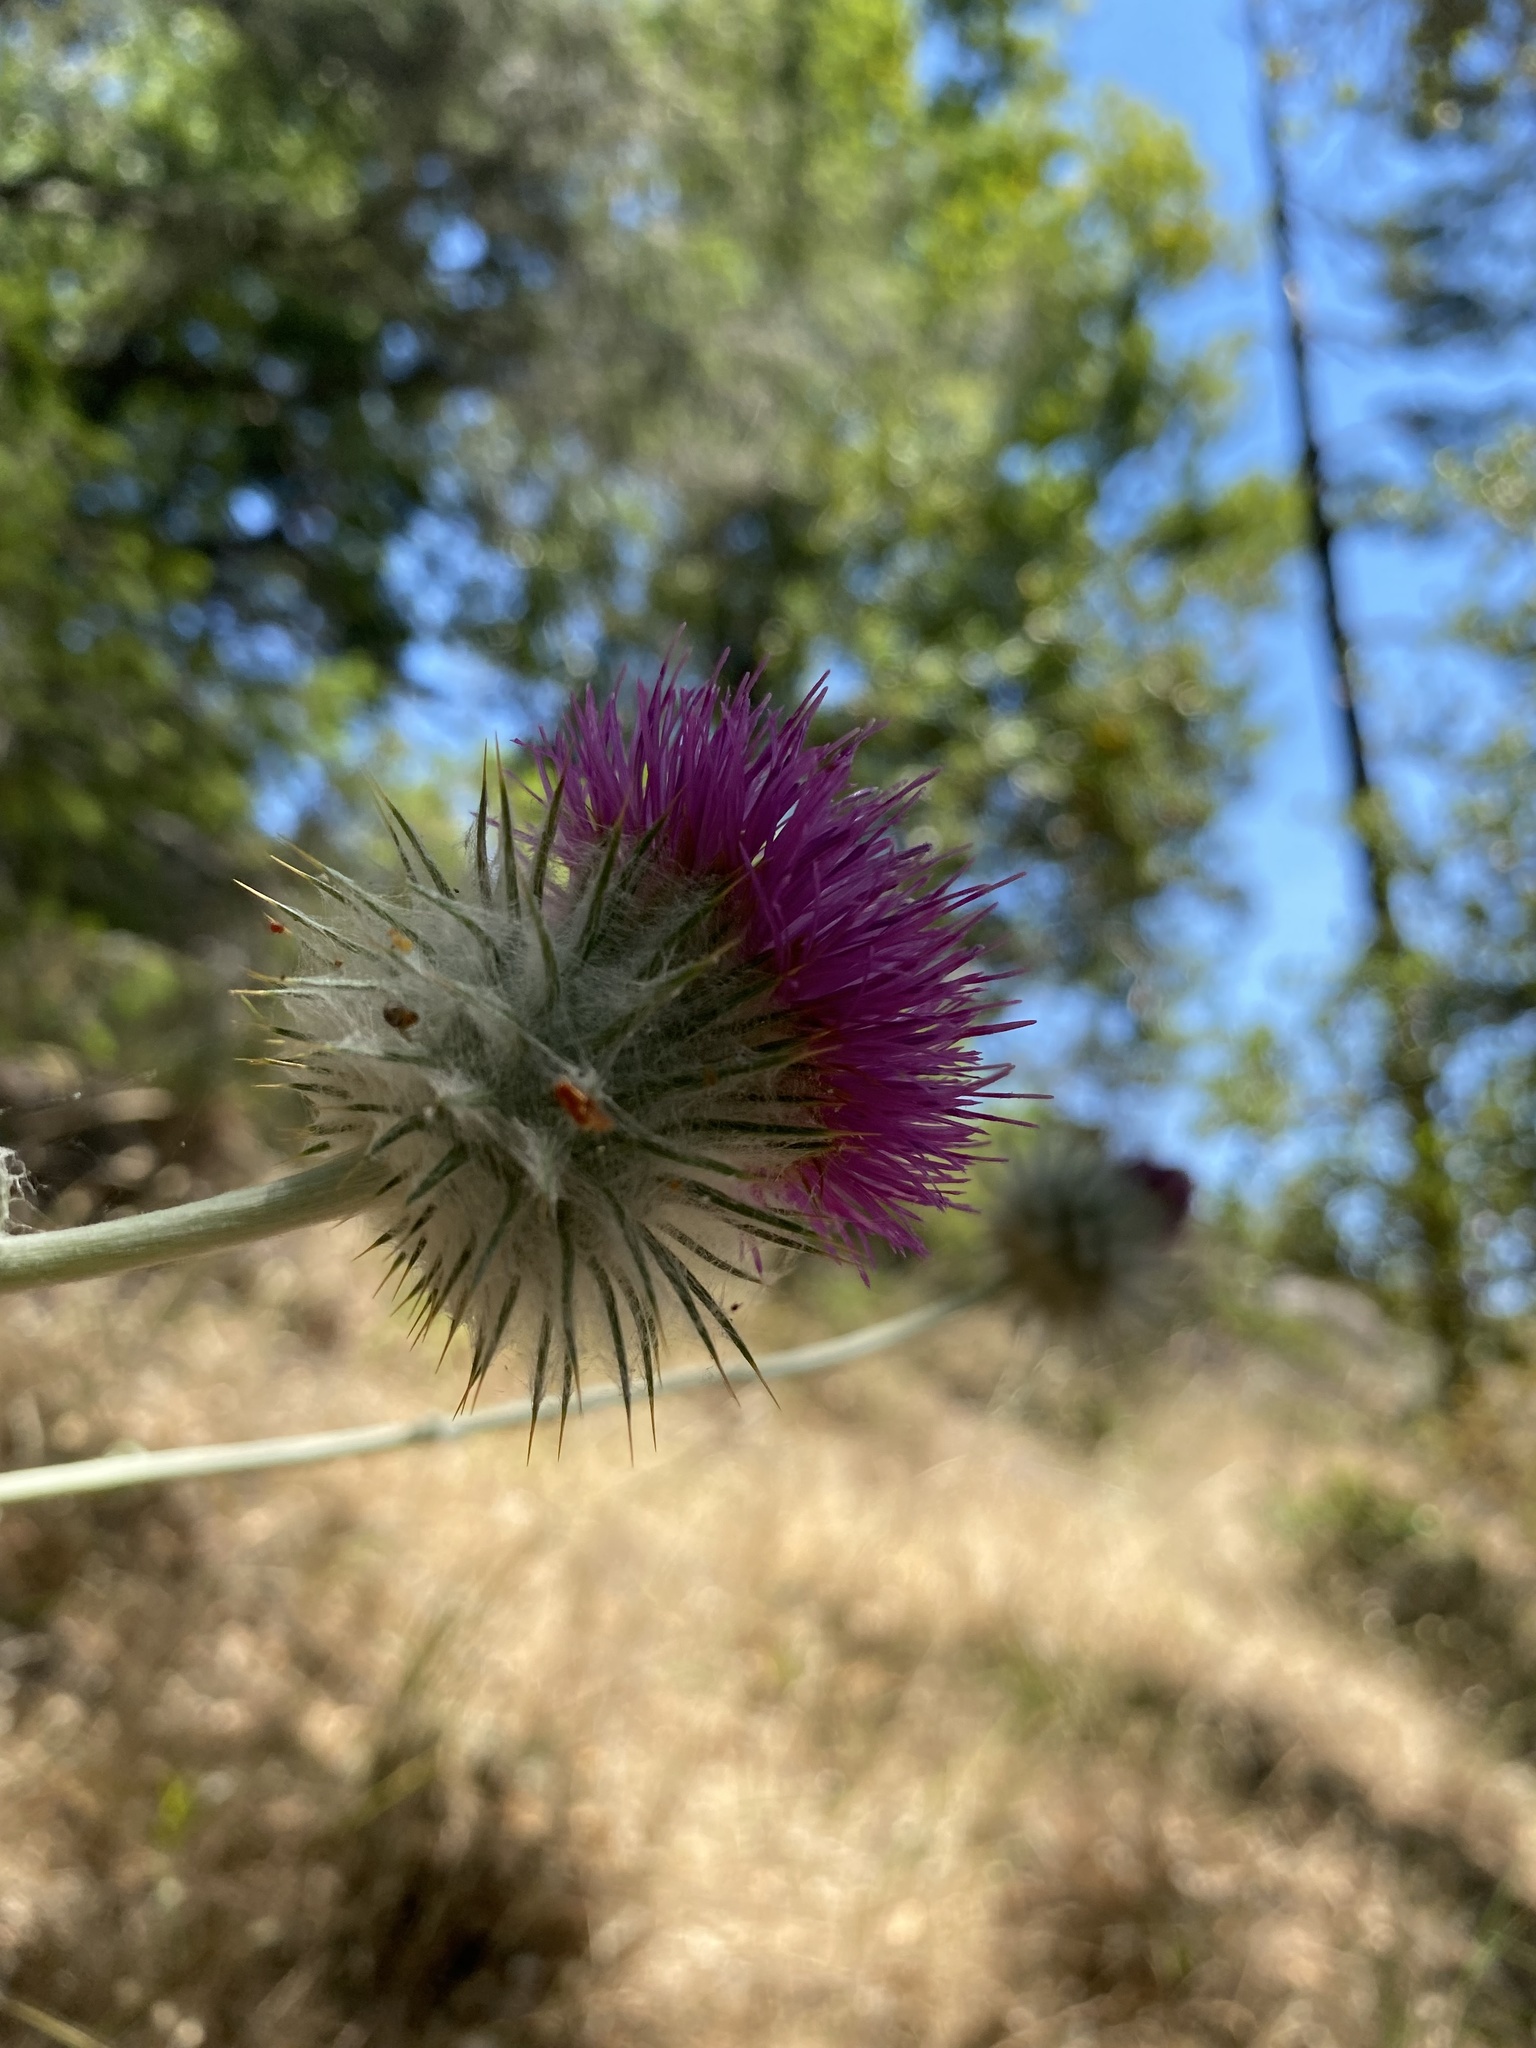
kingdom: Plantae
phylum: Tracheophyta
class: Magnoliopsida
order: Asterales
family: Asteraceae
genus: Cirsium
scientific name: Cirsium occidentale
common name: Western thistle
